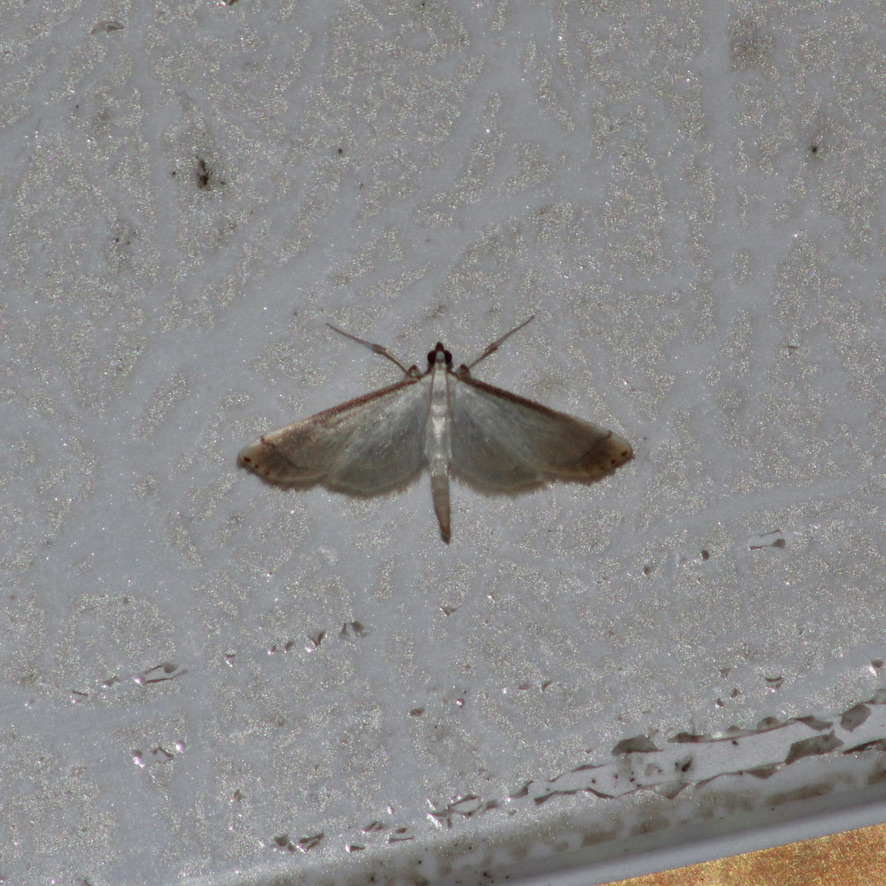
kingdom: Animalia
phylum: Arthropoda
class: Insecta
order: Lepidoptera
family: Crambidae
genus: Stenia
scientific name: Stenia saurialis
